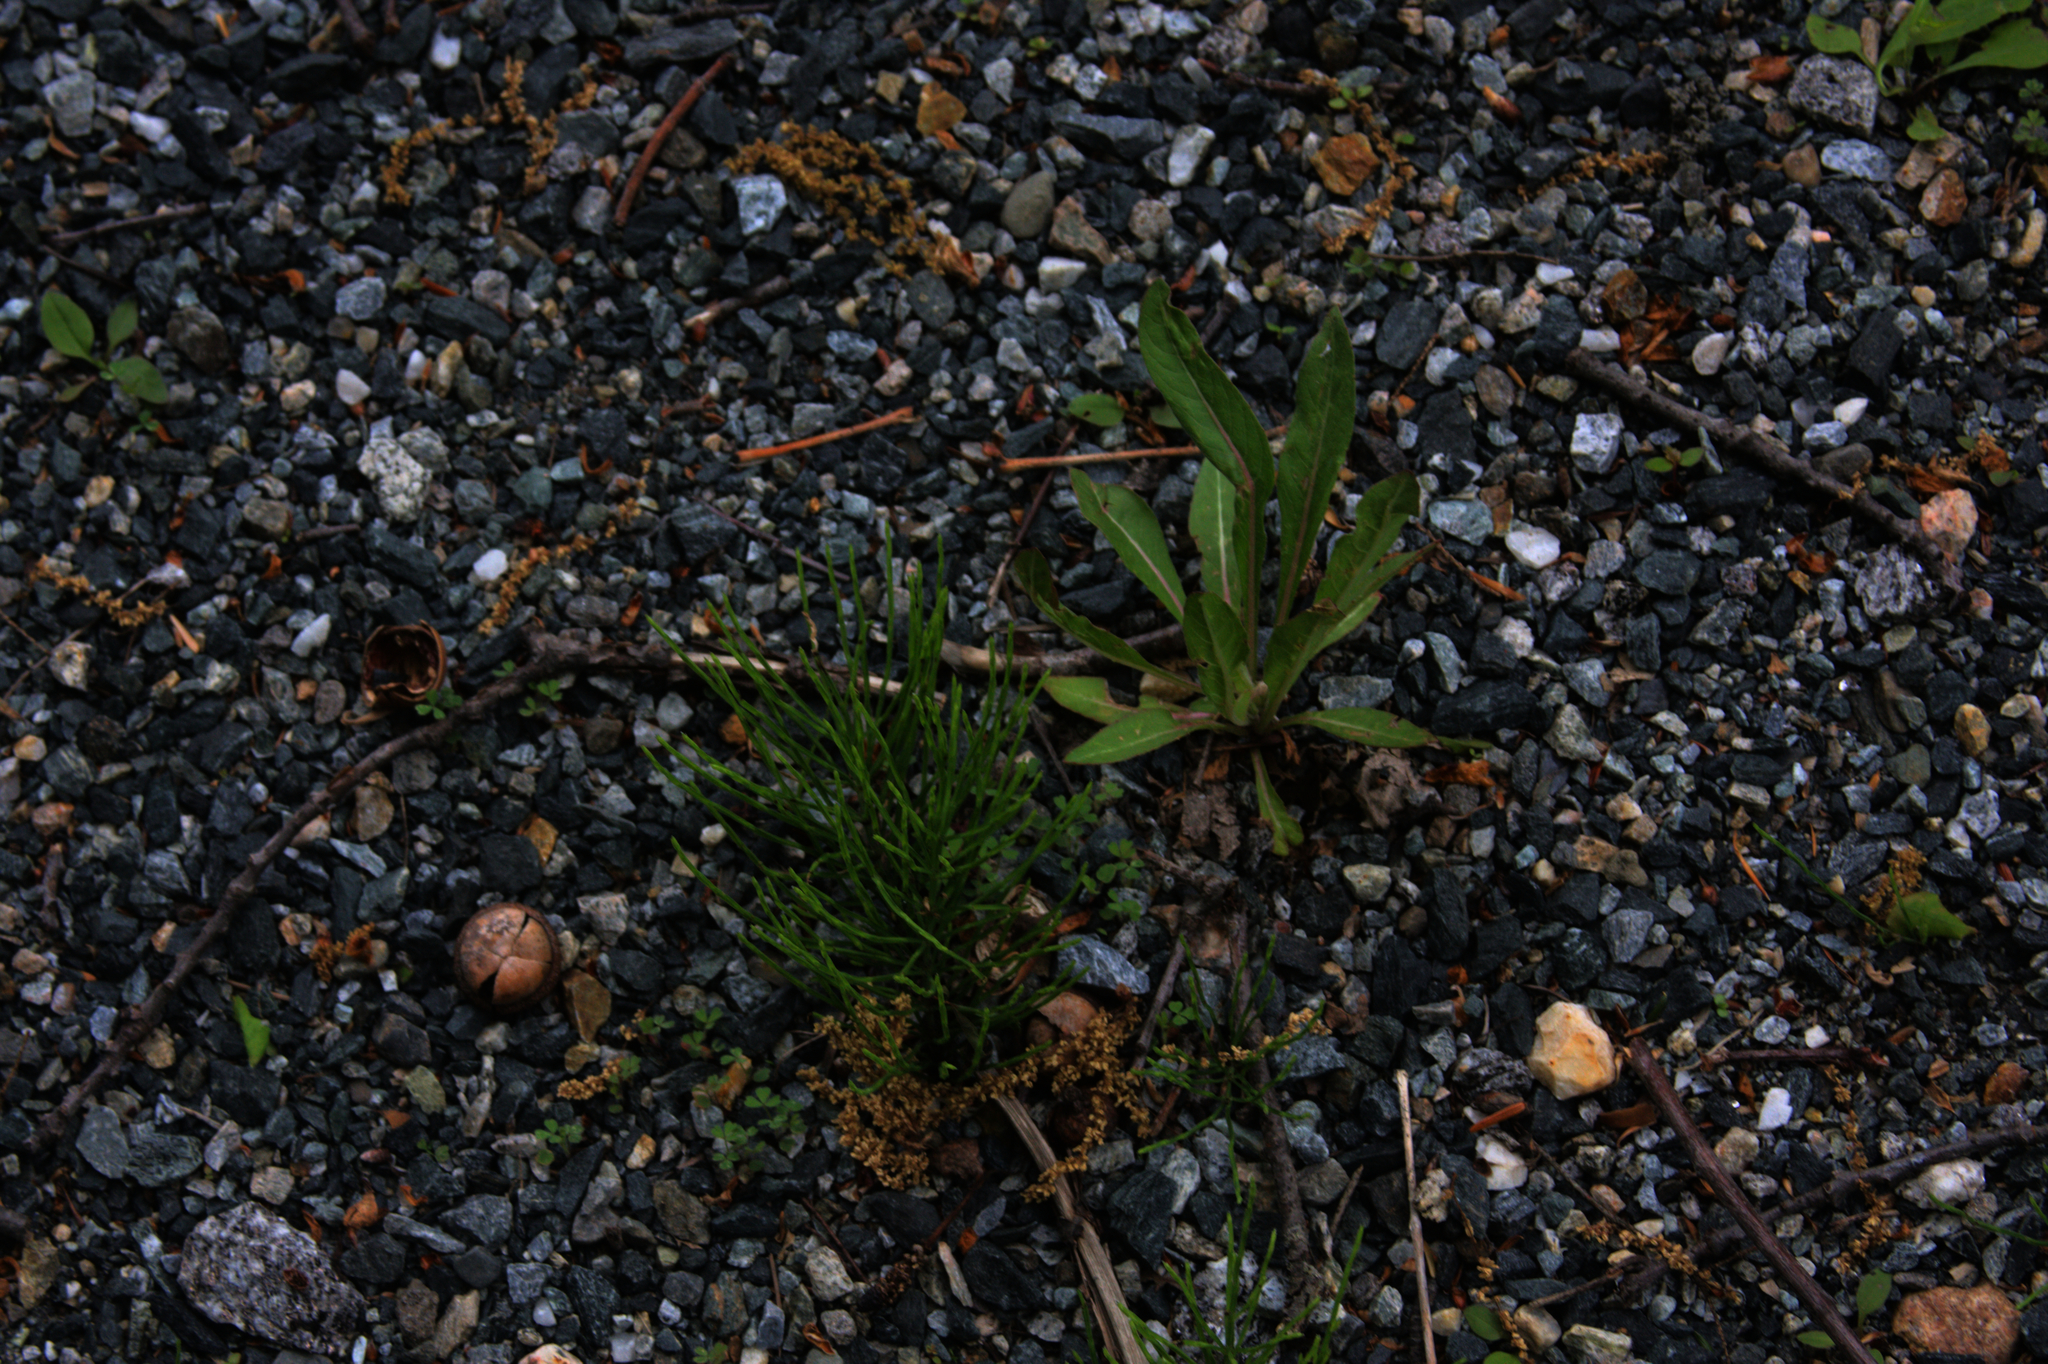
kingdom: Plantae
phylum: Tracheophyta
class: Polypodiopsida
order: Equisetales
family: Equisetaceae
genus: Equisetum
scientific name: Equisetum arvense
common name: Field horsetail
